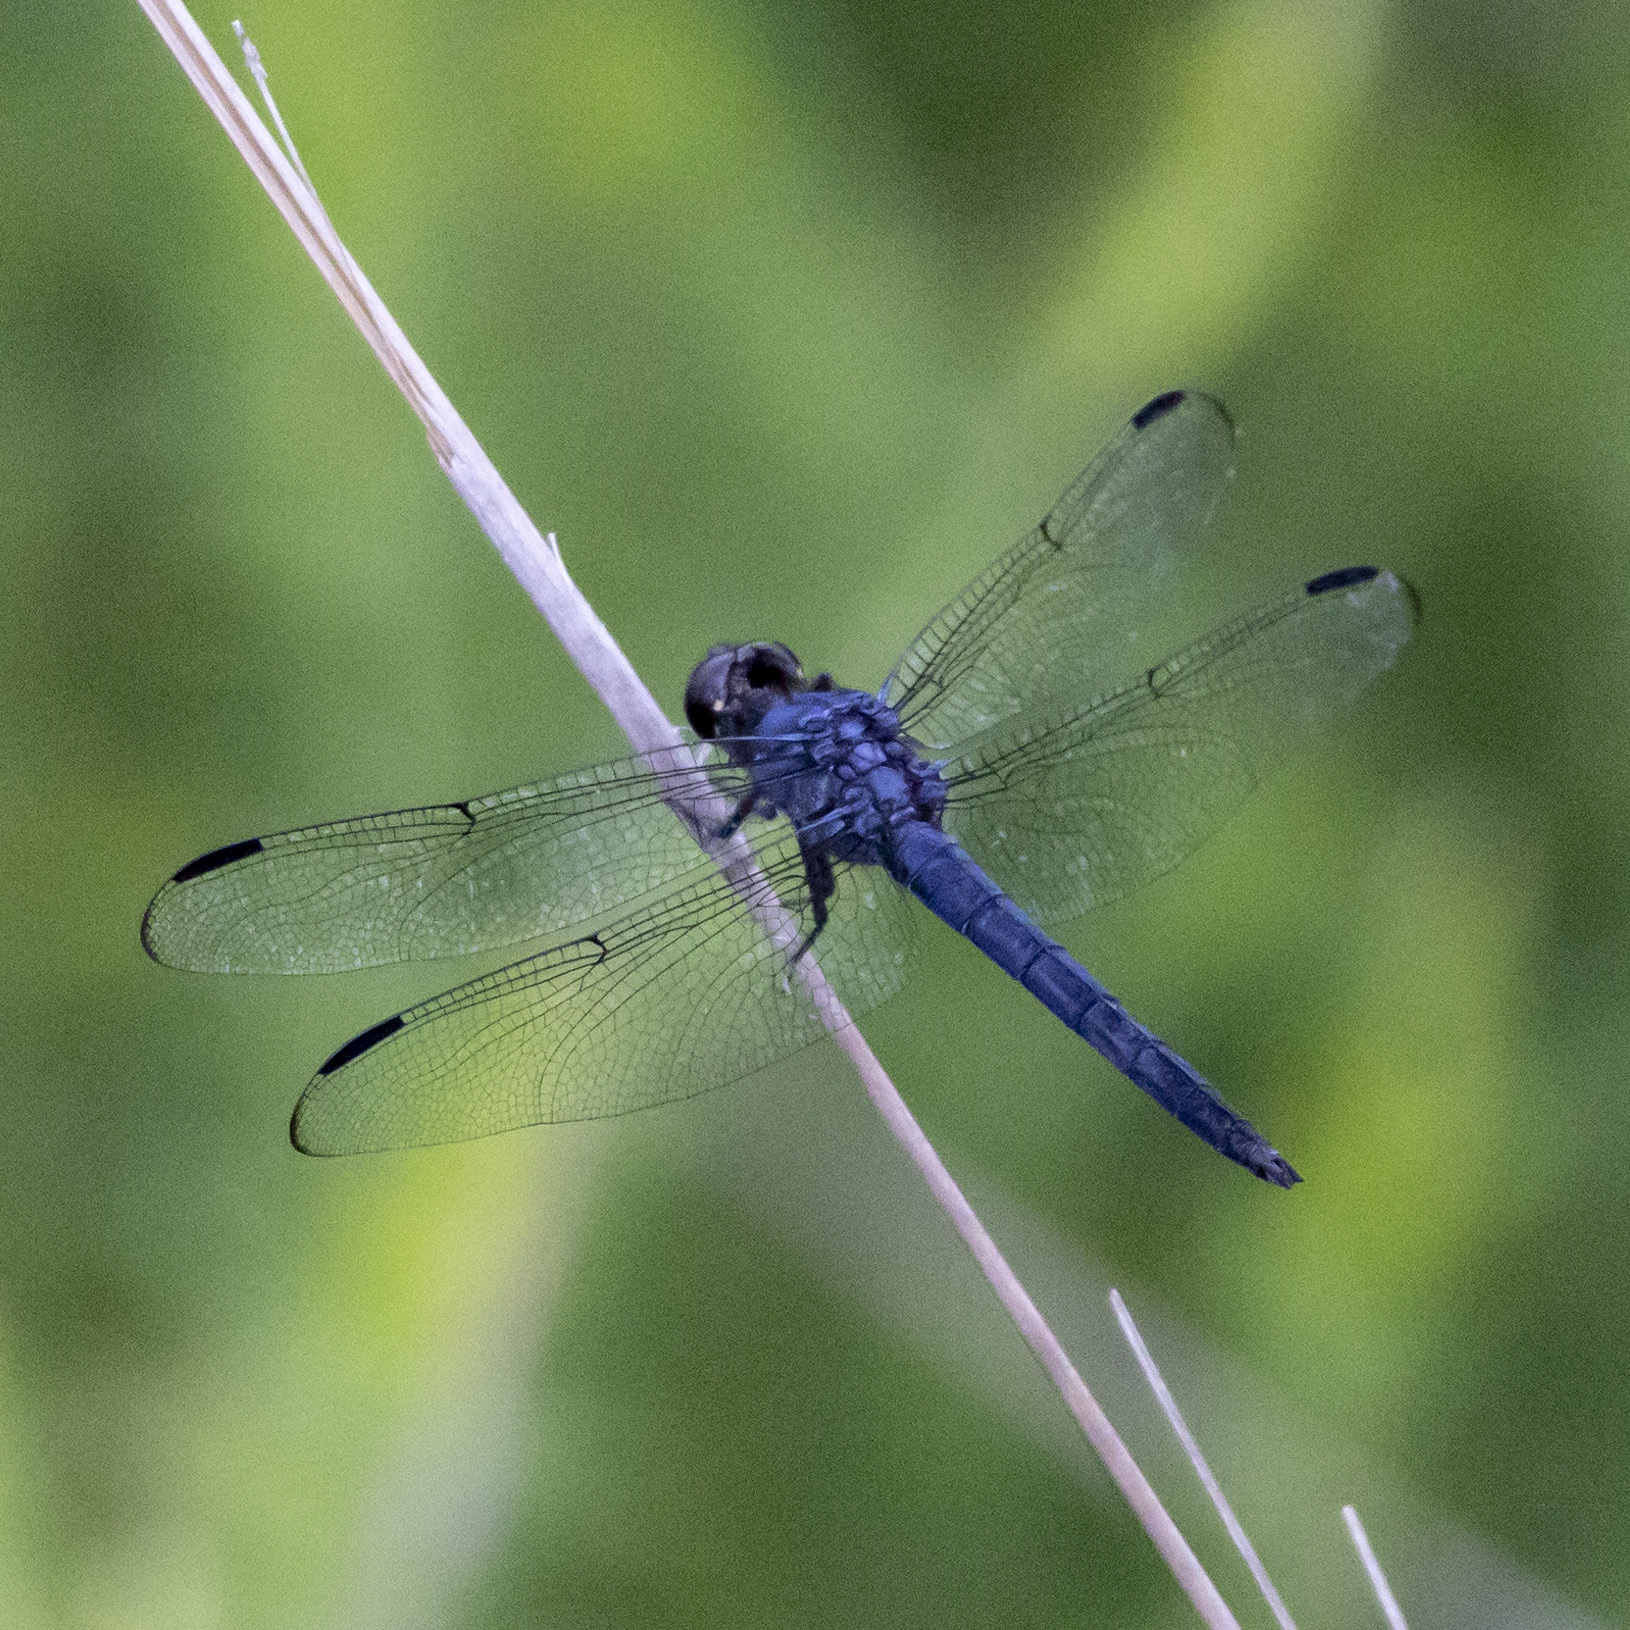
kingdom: Animalia
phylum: Arthropoda
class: Insecta
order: Odonata
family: Libellulidae
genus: Libellula
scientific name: Libellula incesta
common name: Slaty skimmer
